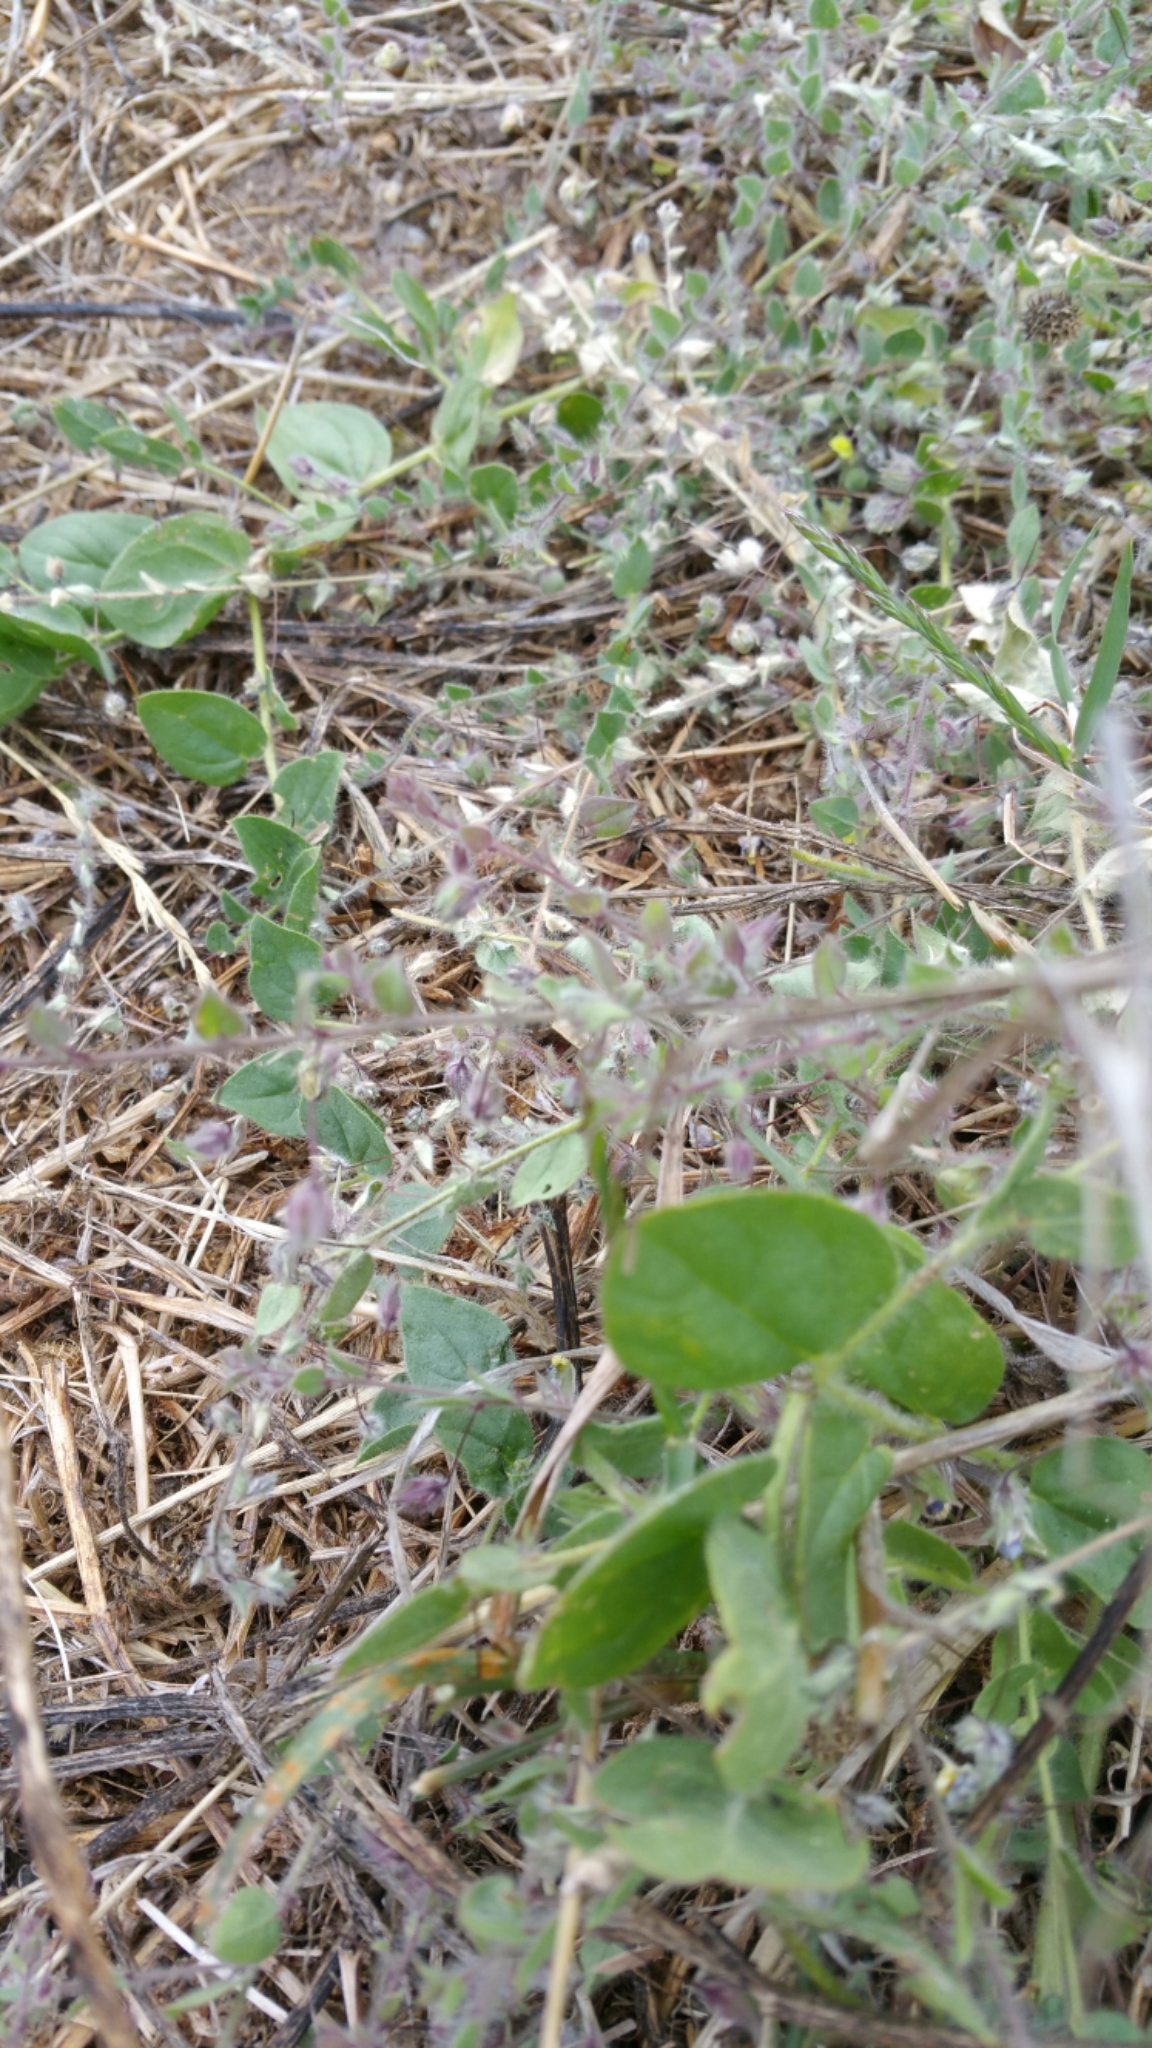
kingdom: Plantae
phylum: Tracheophyta
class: Magnoliopsida
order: Lamiales
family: Plantaginaceae
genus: Kickxia
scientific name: Kickxia spuria
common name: Round-leaved fluellen
